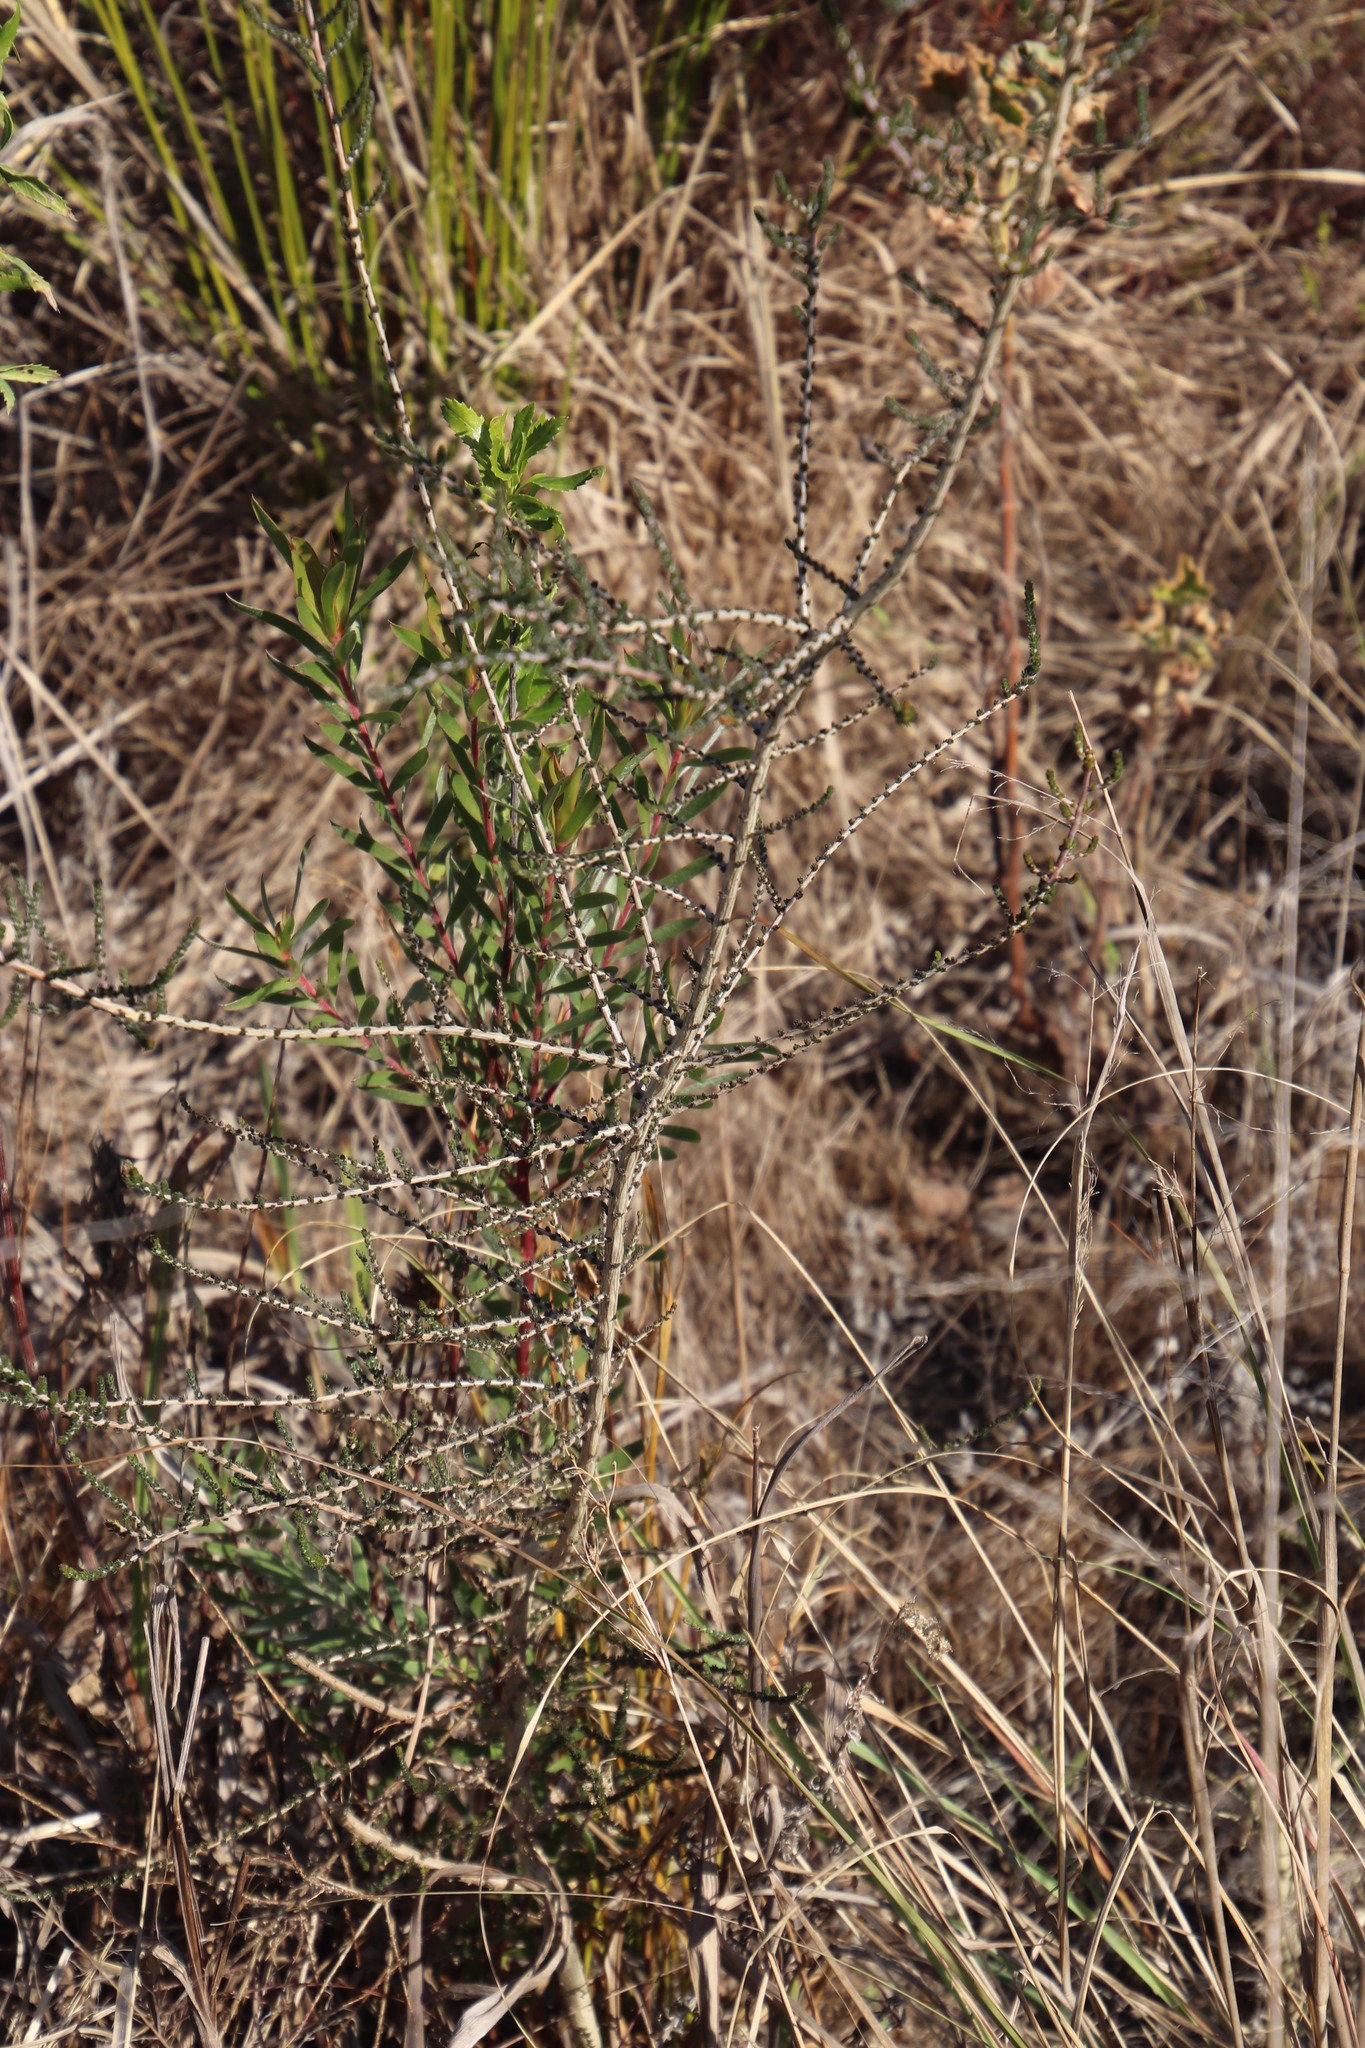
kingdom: Plantae
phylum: Tracheophyta
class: Magnoliopsida
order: Fabales
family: Fabaceae
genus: Aspalathus
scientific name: Aspalathus hispida
